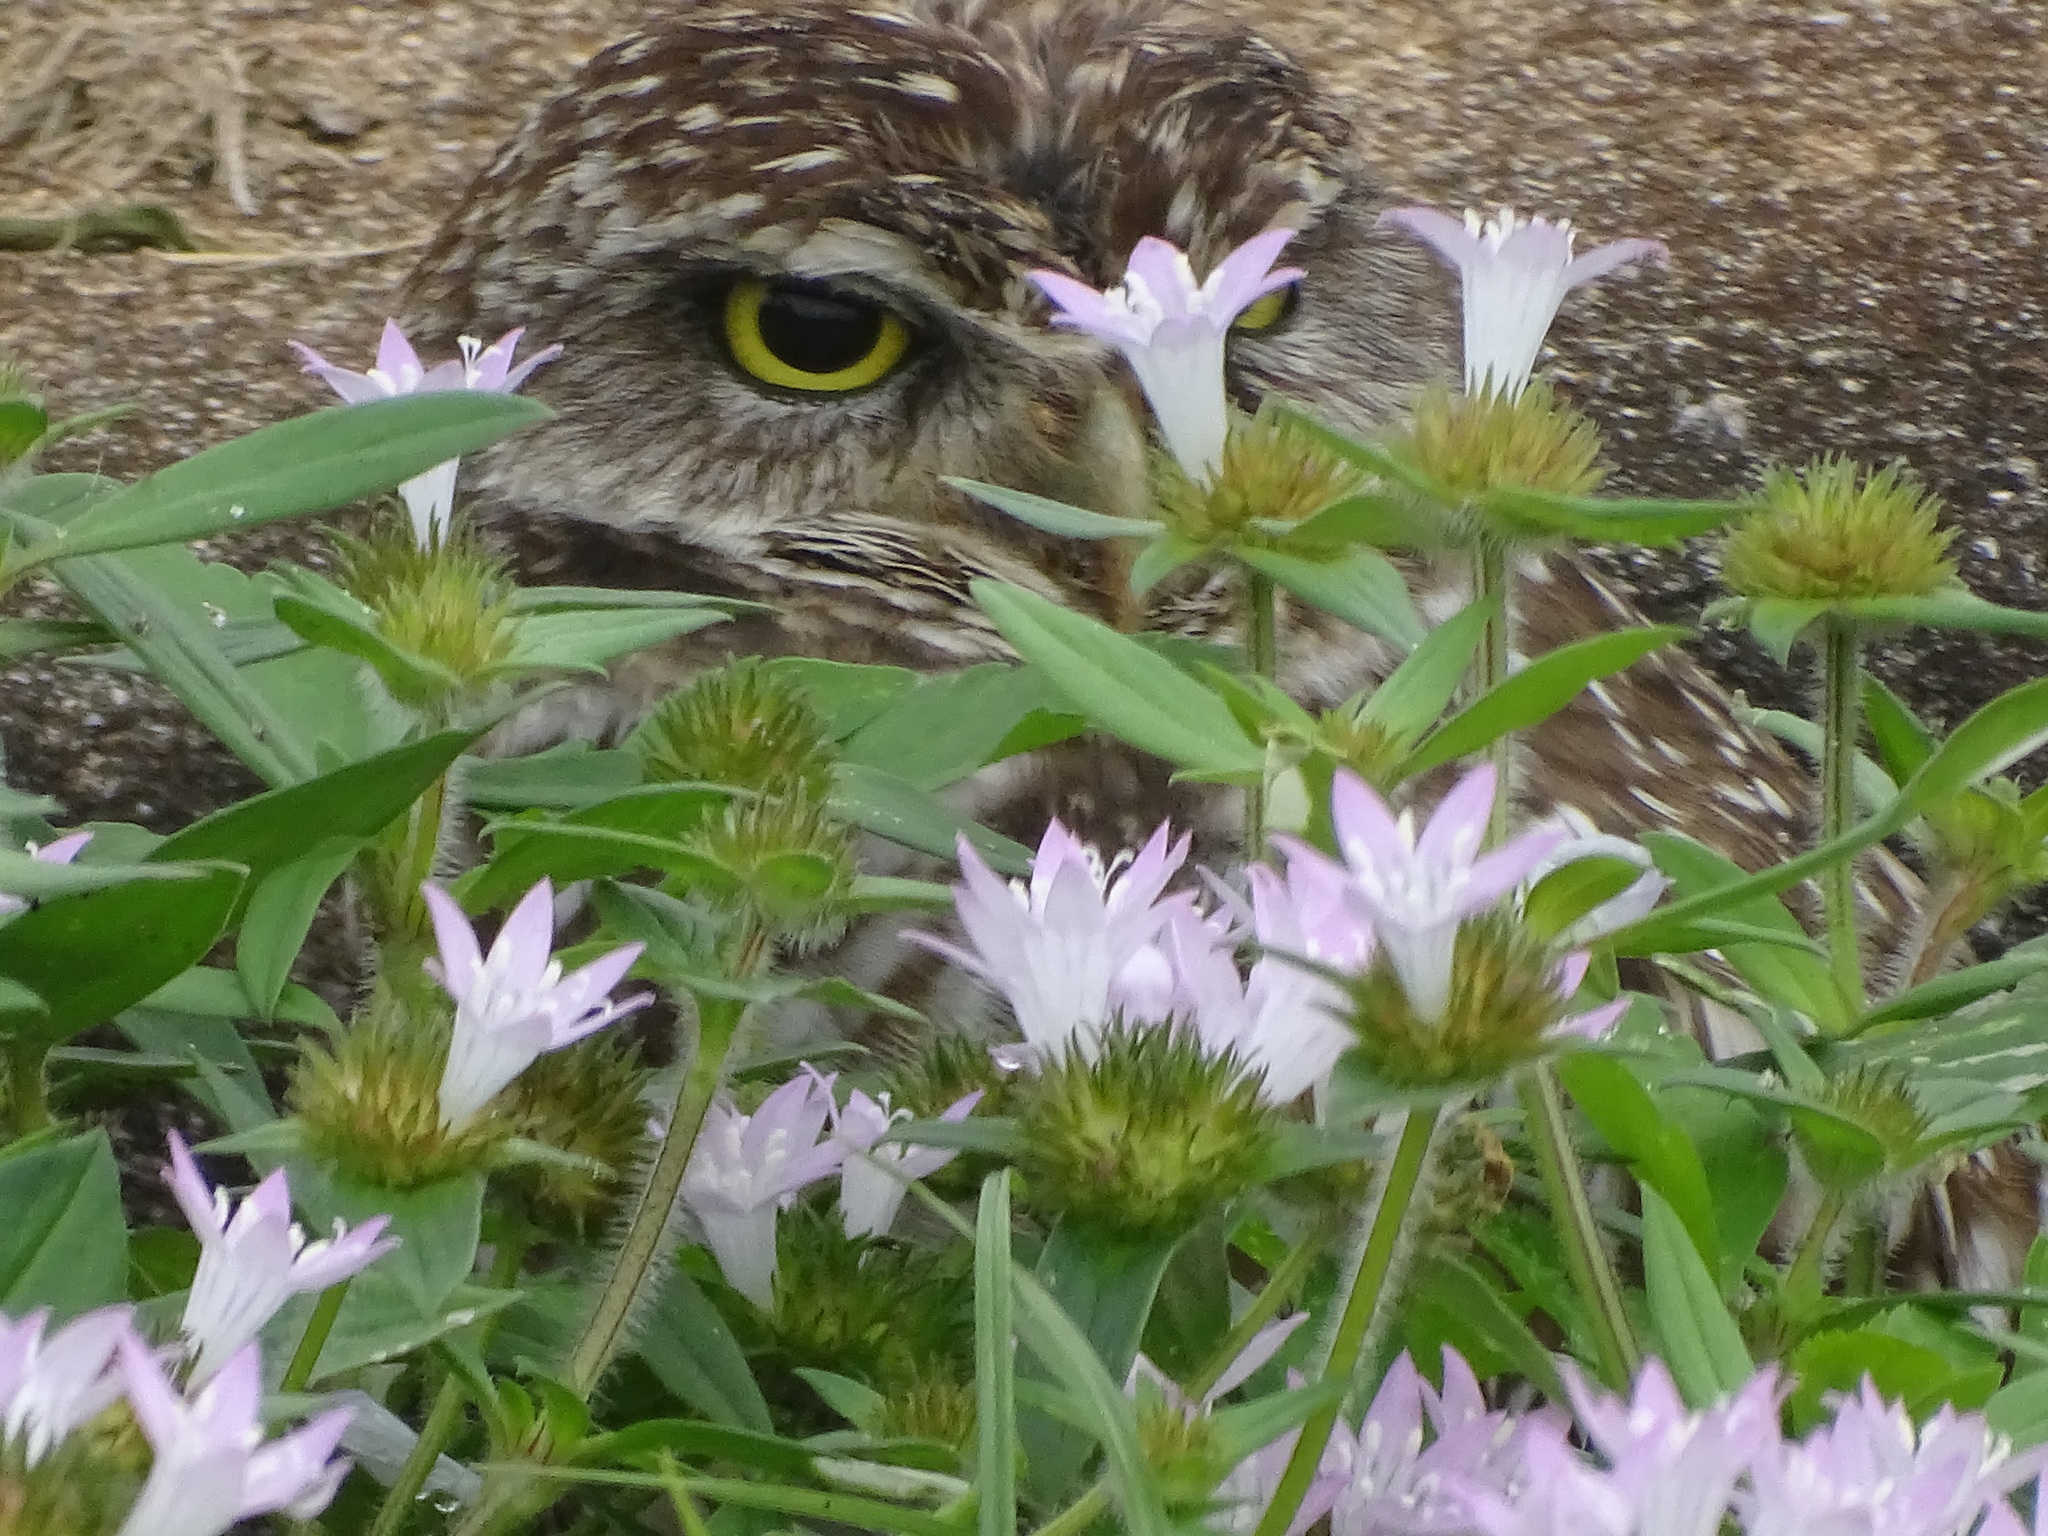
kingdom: Animalia
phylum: Chordata
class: Aves
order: Strigiformes
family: Strigidae
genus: Athene
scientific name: Athene cunicularia
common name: Burrowing owl
